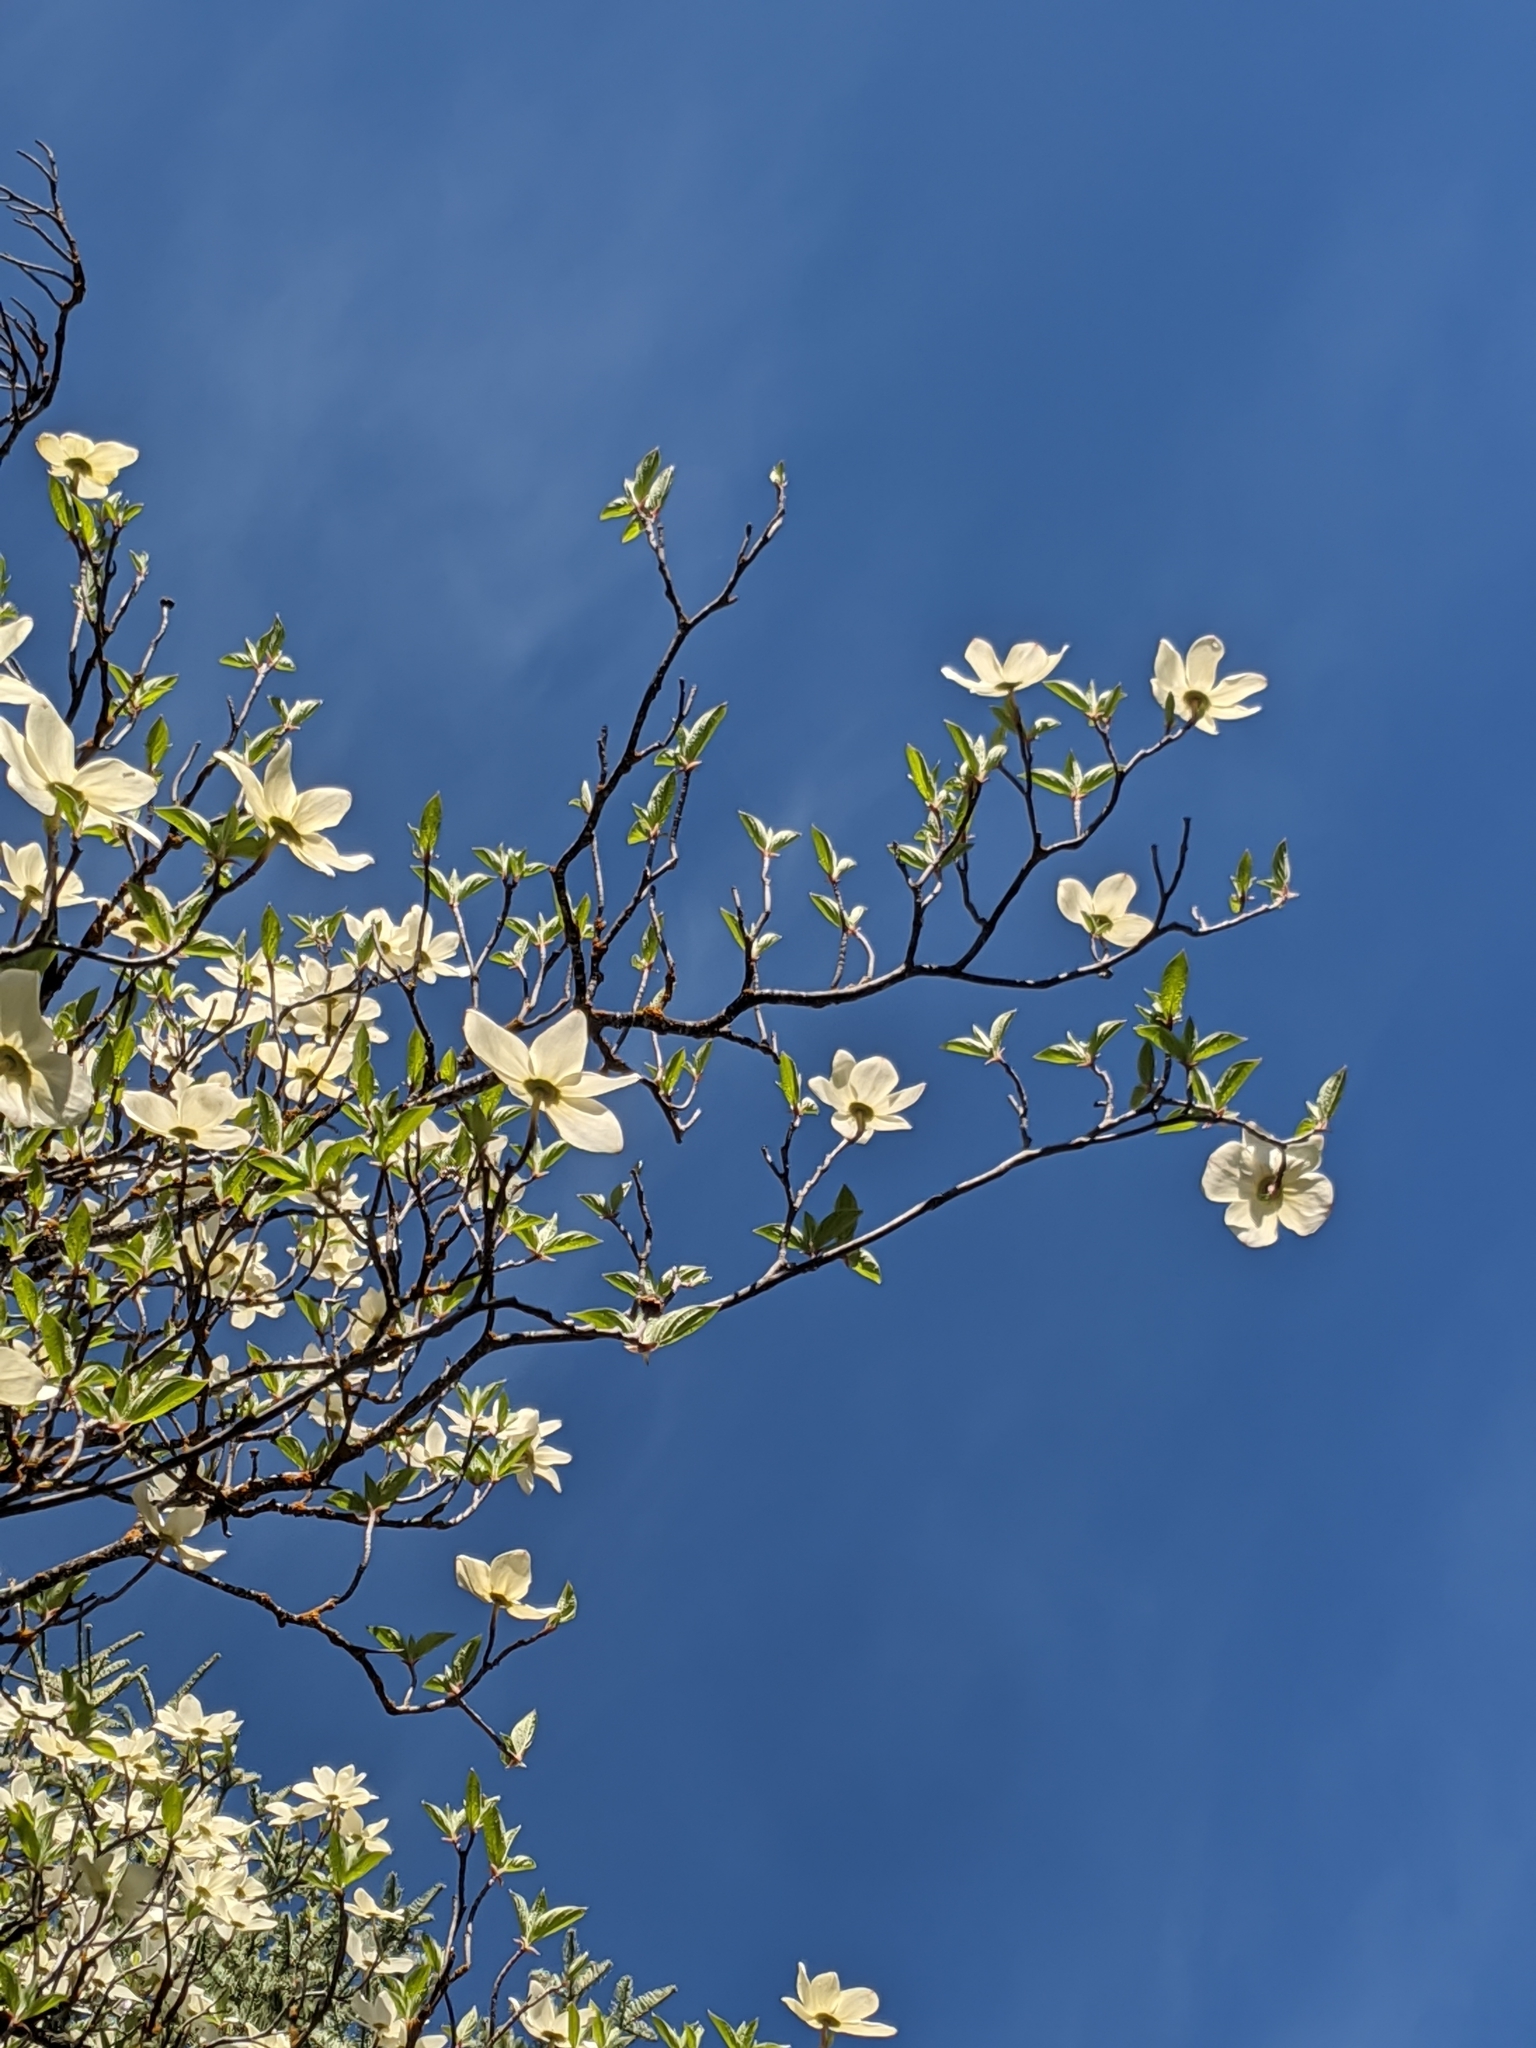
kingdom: Plantae
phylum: Tracheophyta
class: Magnoliopsida
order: Cornales
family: Cornaceae
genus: Cornus
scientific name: Cornus nuttallii
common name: Pacific dogwood
